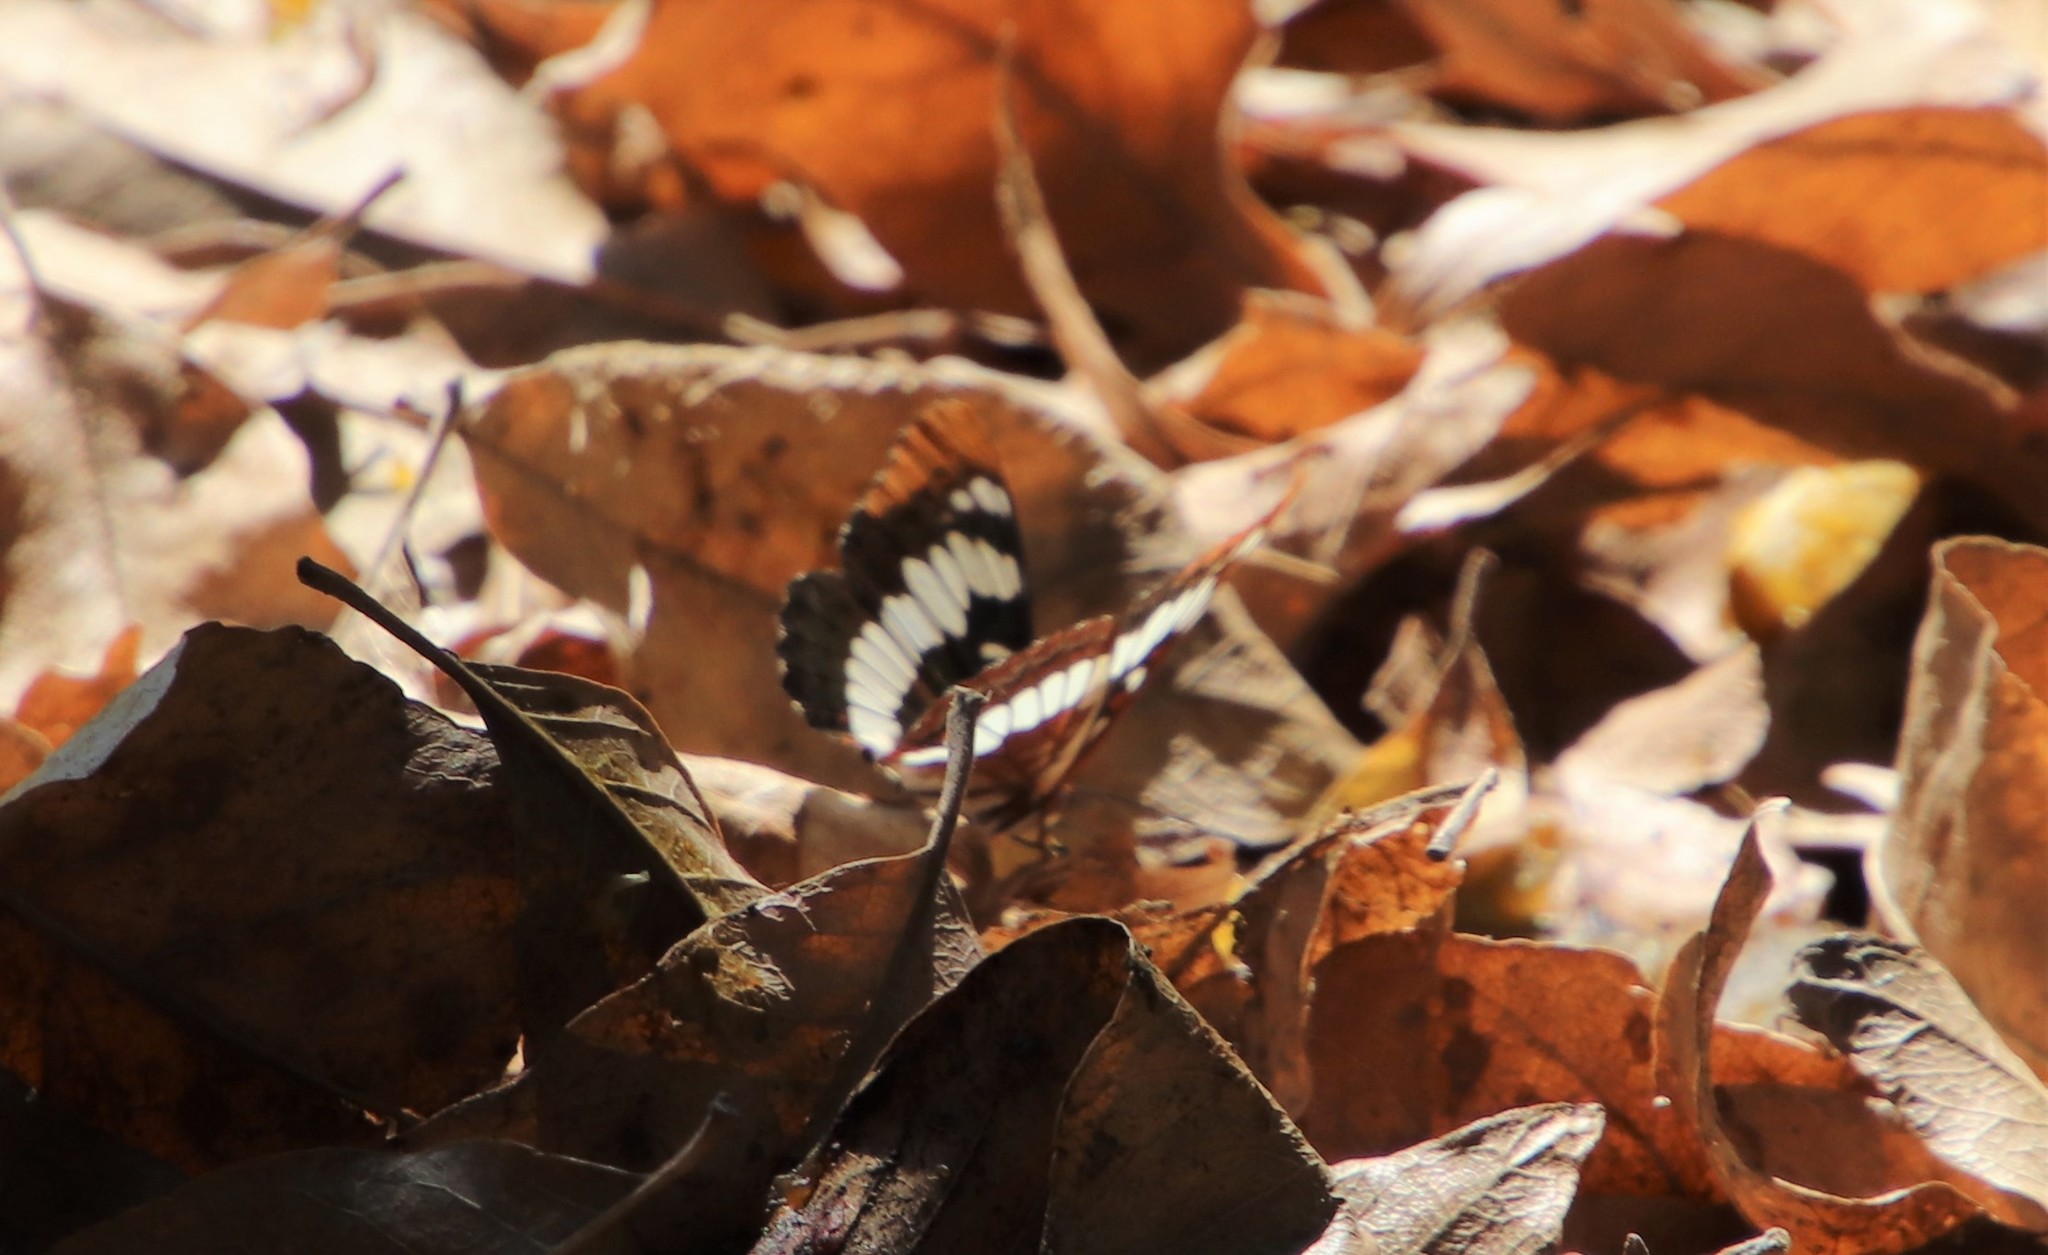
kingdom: Animalia
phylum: Arthropoda
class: Insecta
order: Lepidoptera
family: Nymphalidae
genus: Limenitis
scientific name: Limenitis lorquini
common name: Lorquin's admiral
